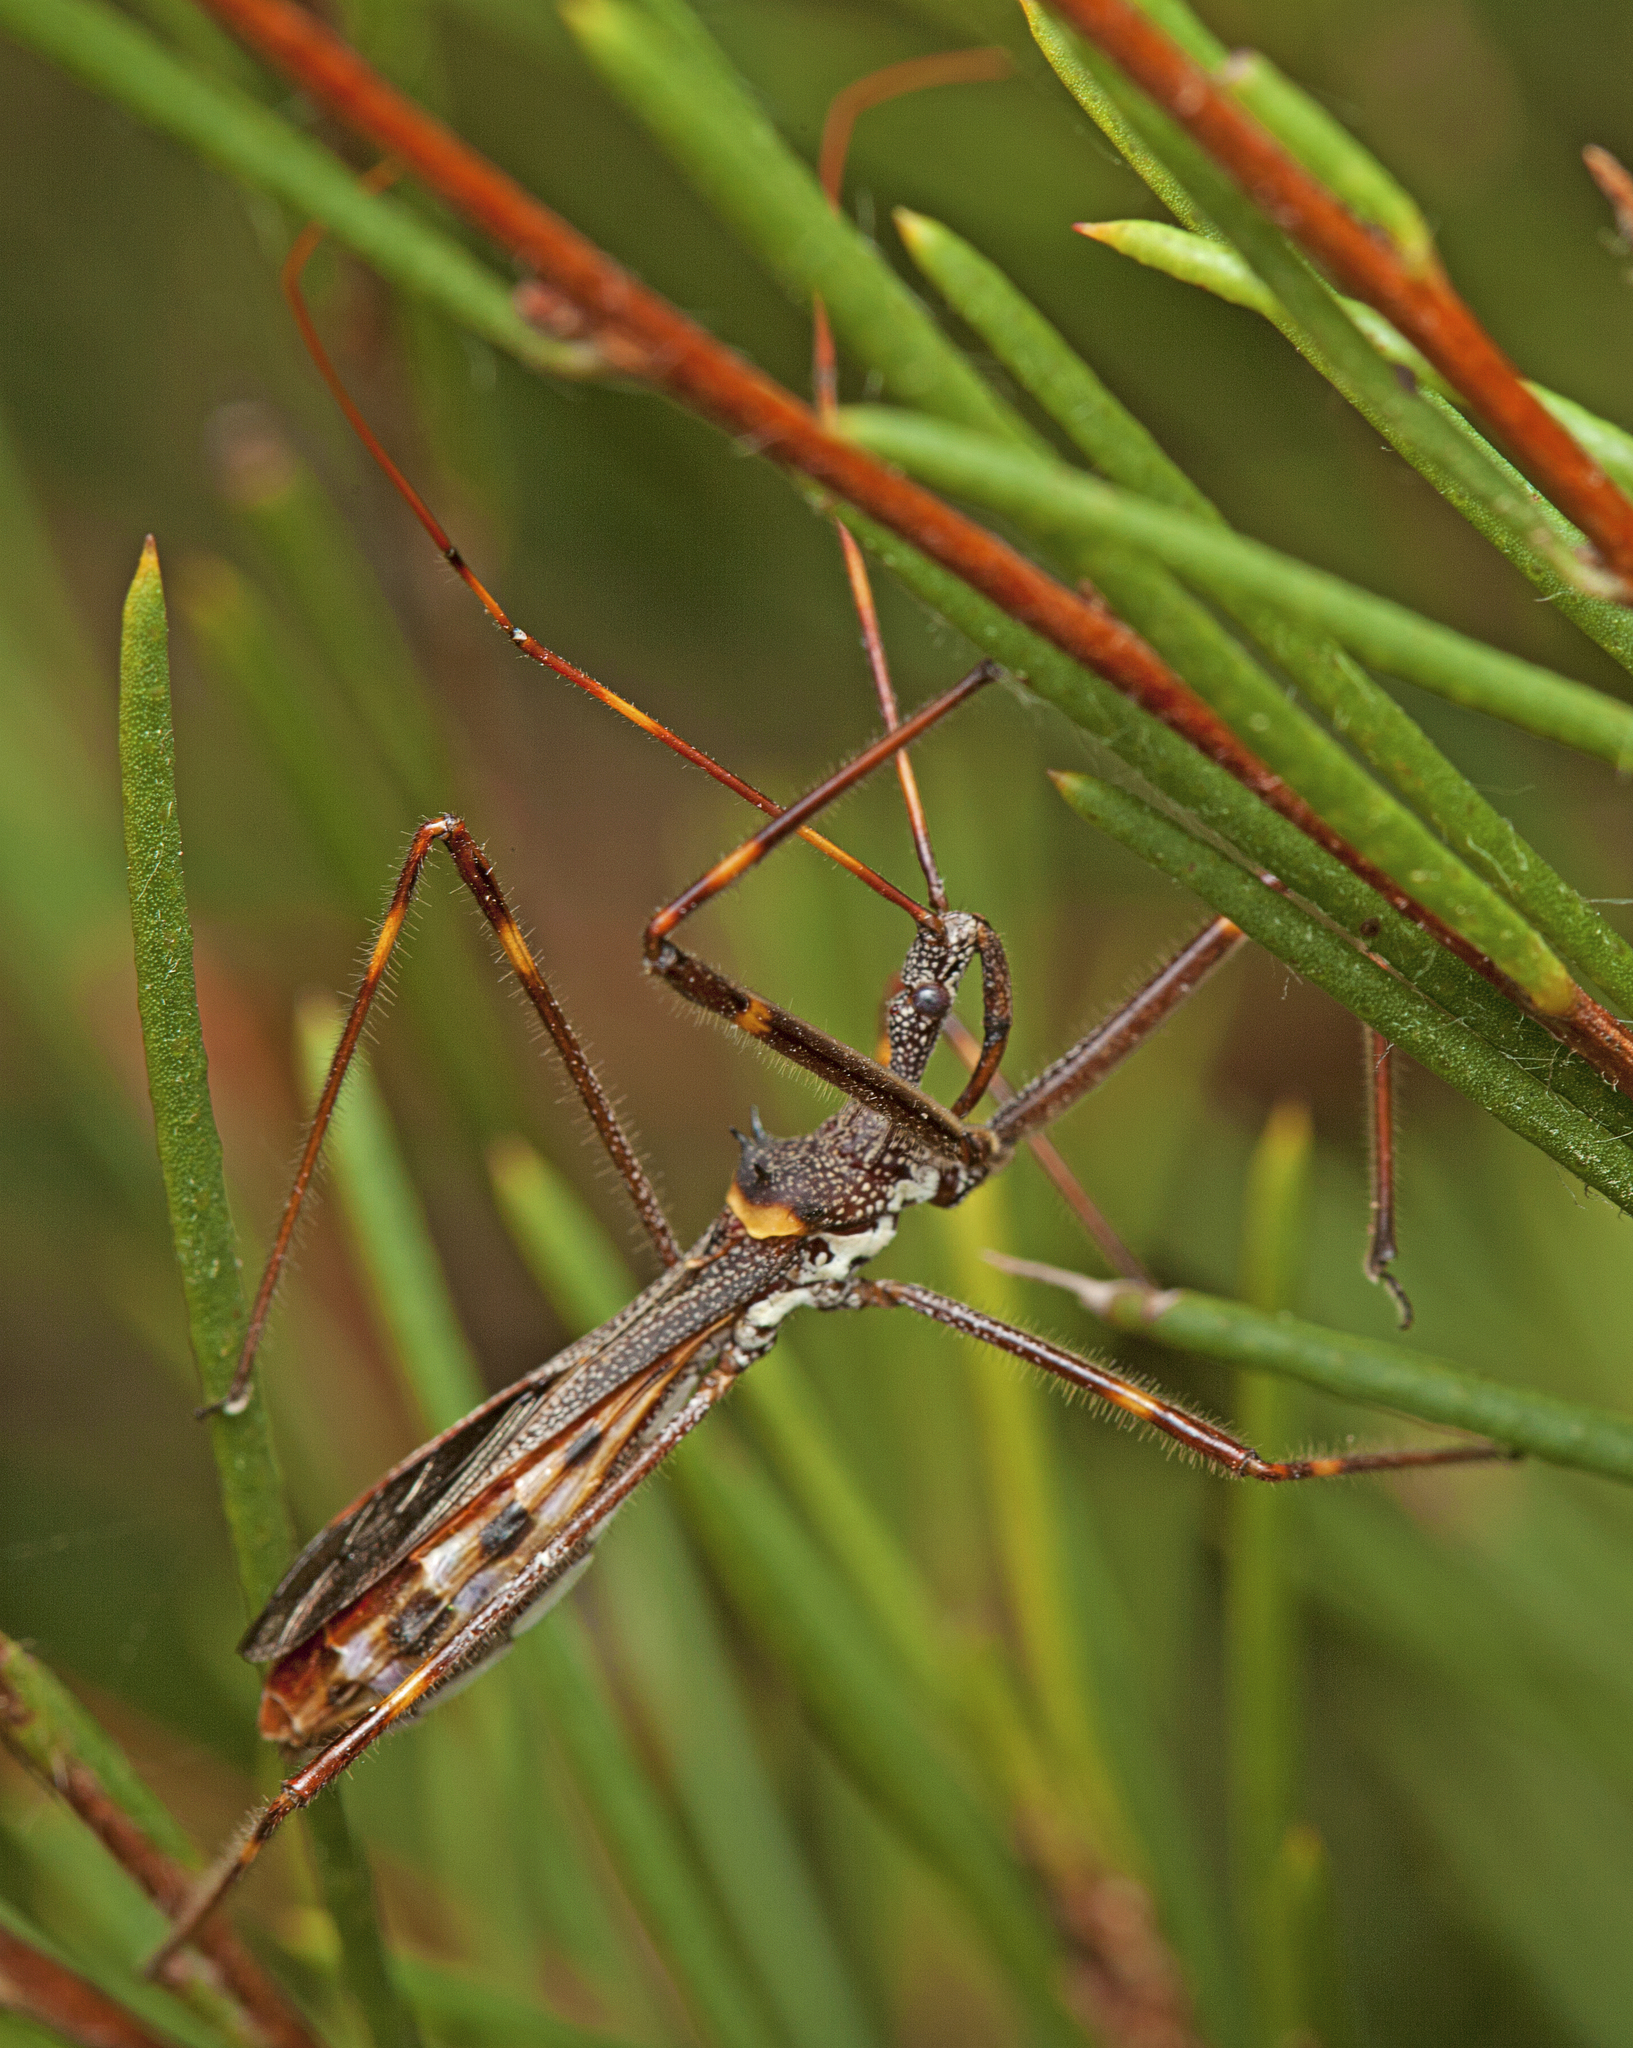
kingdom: Animalia
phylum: Arthropoda
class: Insecta
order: Hemiptera
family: Reduviidae
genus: Pnirsus
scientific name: Pnirsus cinctipes
